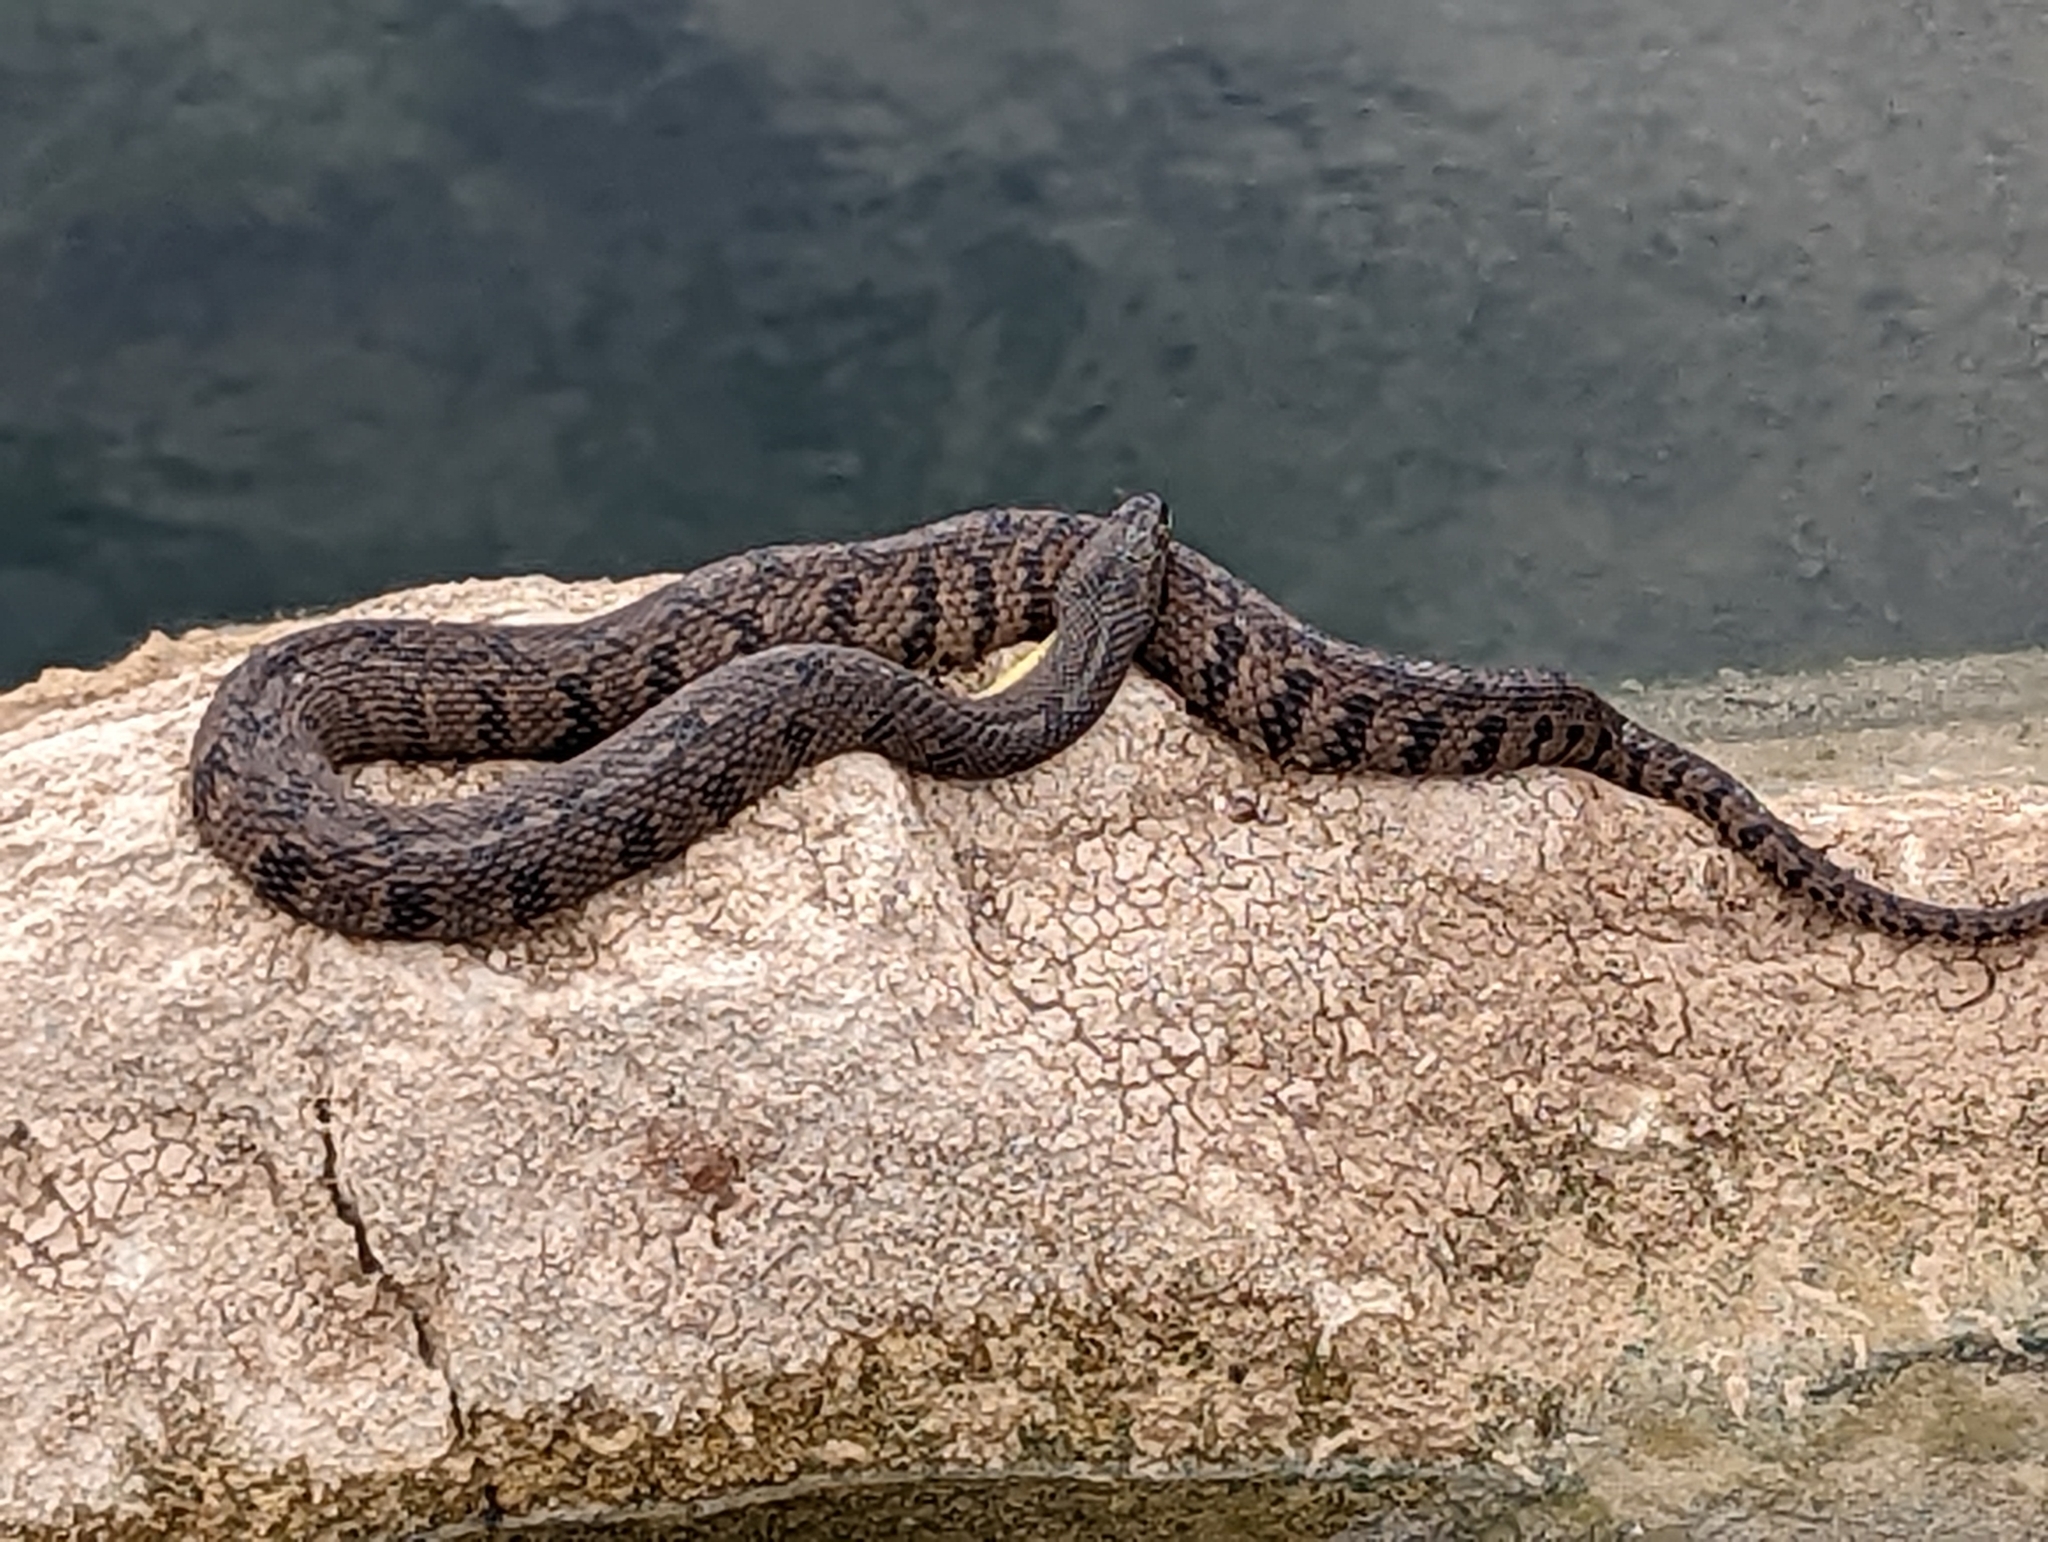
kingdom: Animalia
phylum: Chordata
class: Squamata
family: Colubridae
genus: Nerodia
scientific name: Nerodia rhombifer
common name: Diamondback water snake
